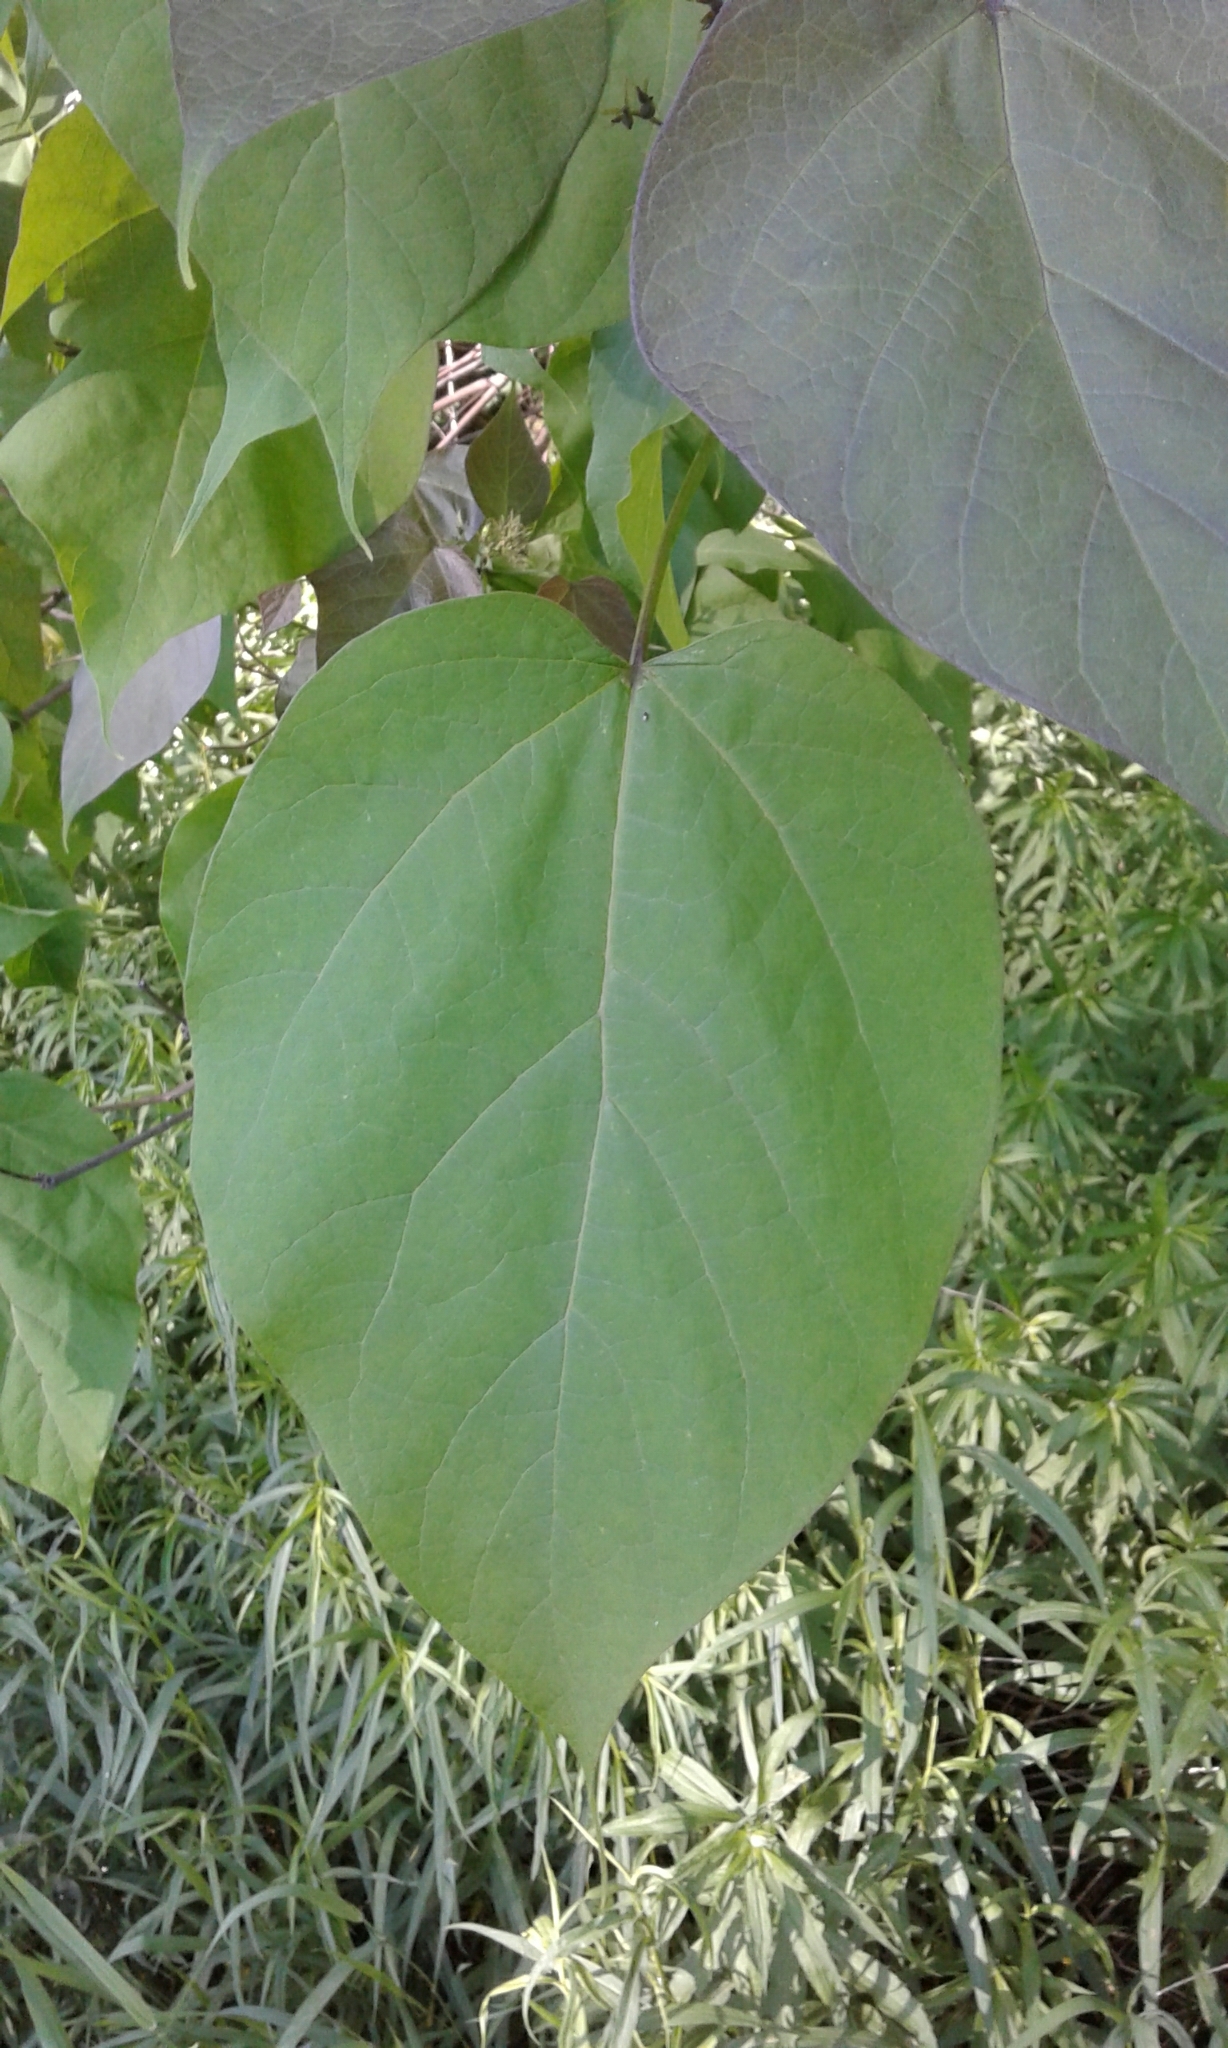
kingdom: Plantae
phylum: Tracheophyta
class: Magnoliopsida
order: Lamiales
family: Bignoniaceae
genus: Catalpa
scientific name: Catalpa speciosa
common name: Northern catalpa
